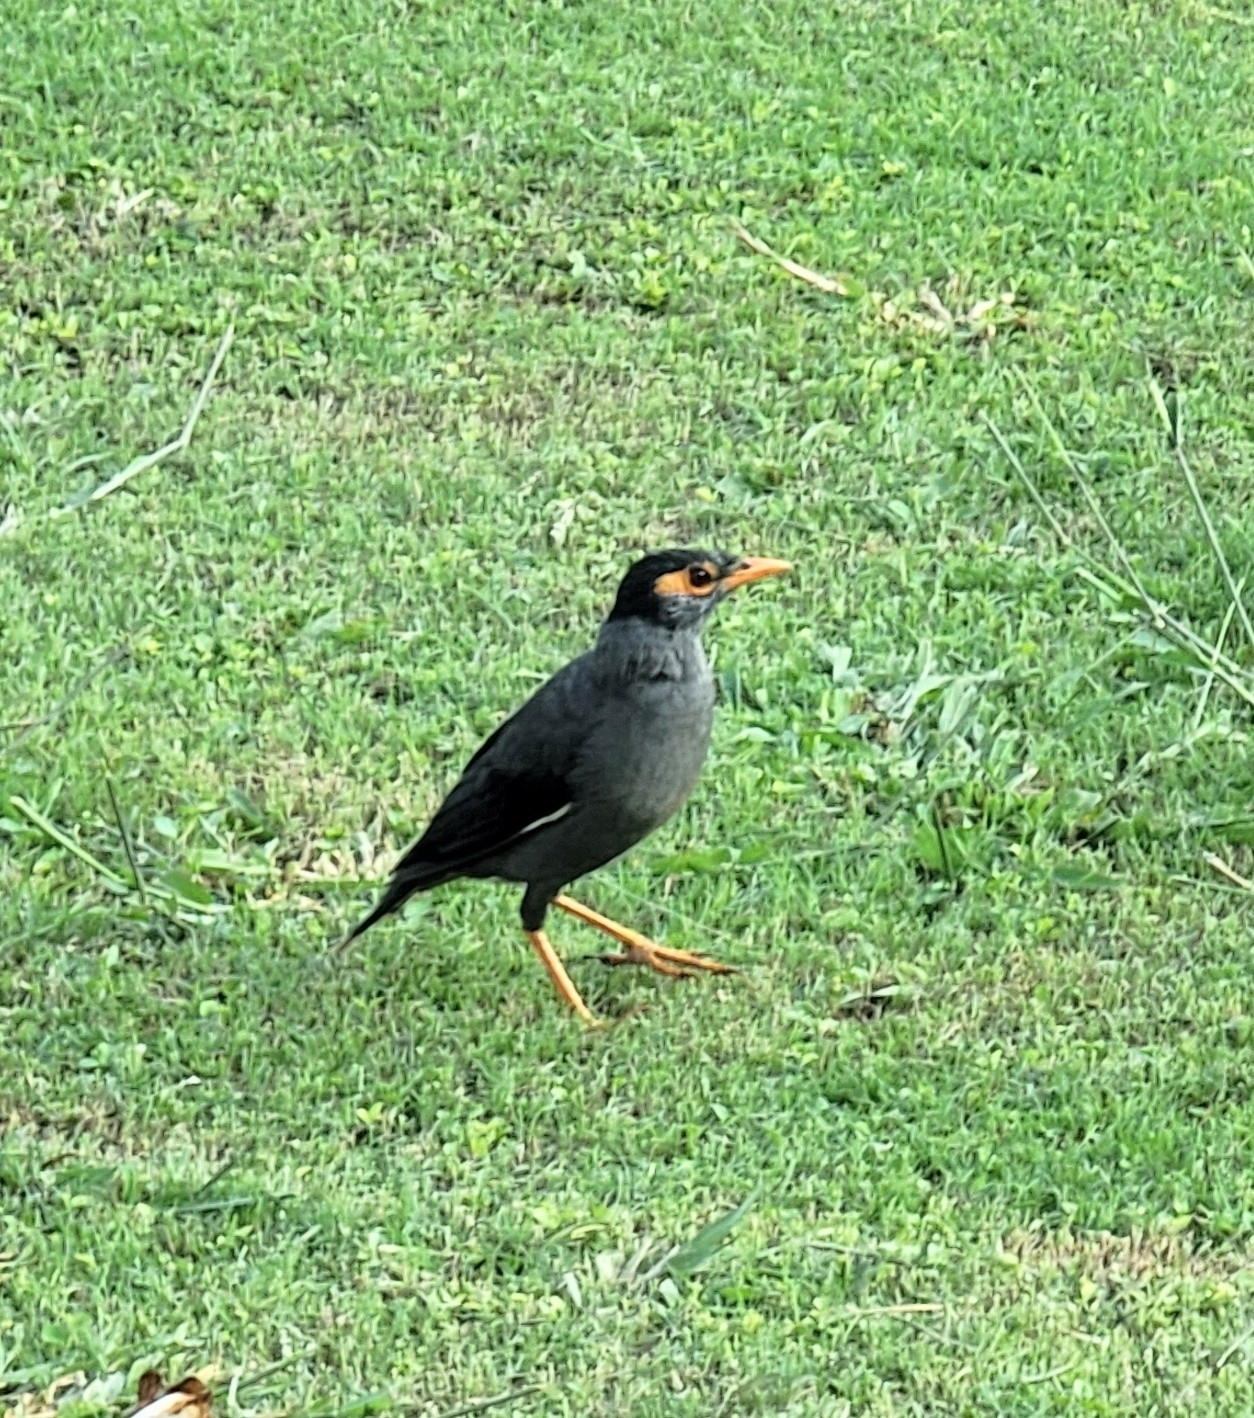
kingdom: Animalia
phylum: Chordata
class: Aves
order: Passeriformes
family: Sturnidae
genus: Acridotheres
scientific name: Acridotheres ginginianus
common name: Bank myna
